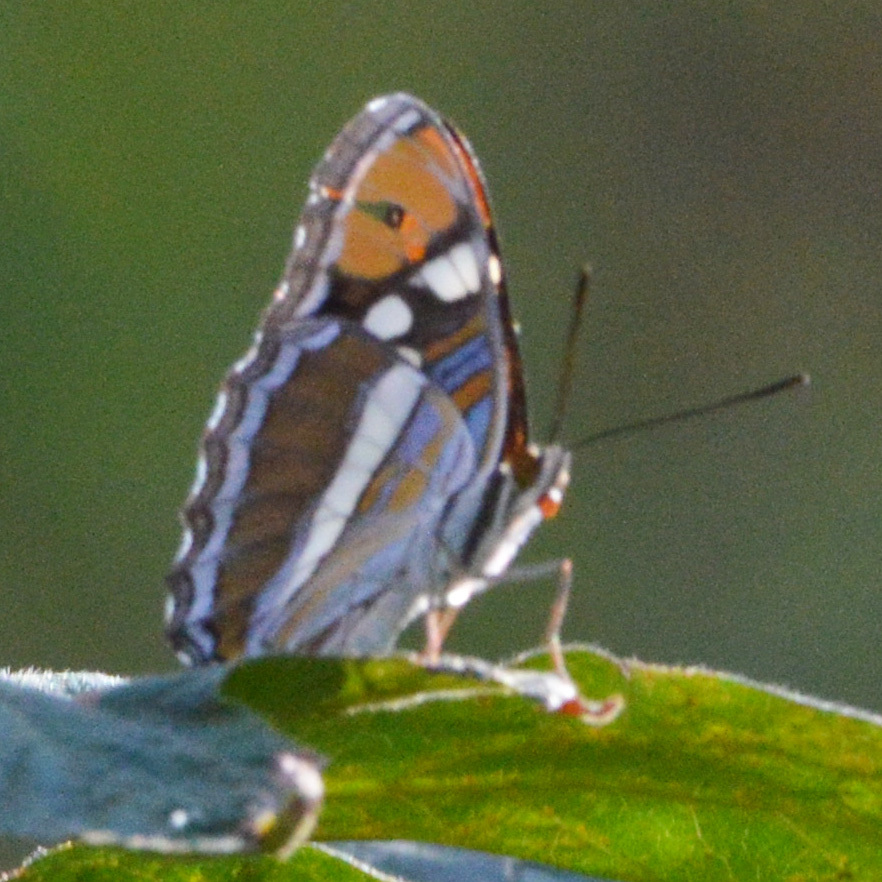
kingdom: Animalia
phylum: Arthropoda
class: Insecta
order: Lepidoptera
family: Nymphalidae
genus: Limenitis
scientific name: Limenitis bredowii
